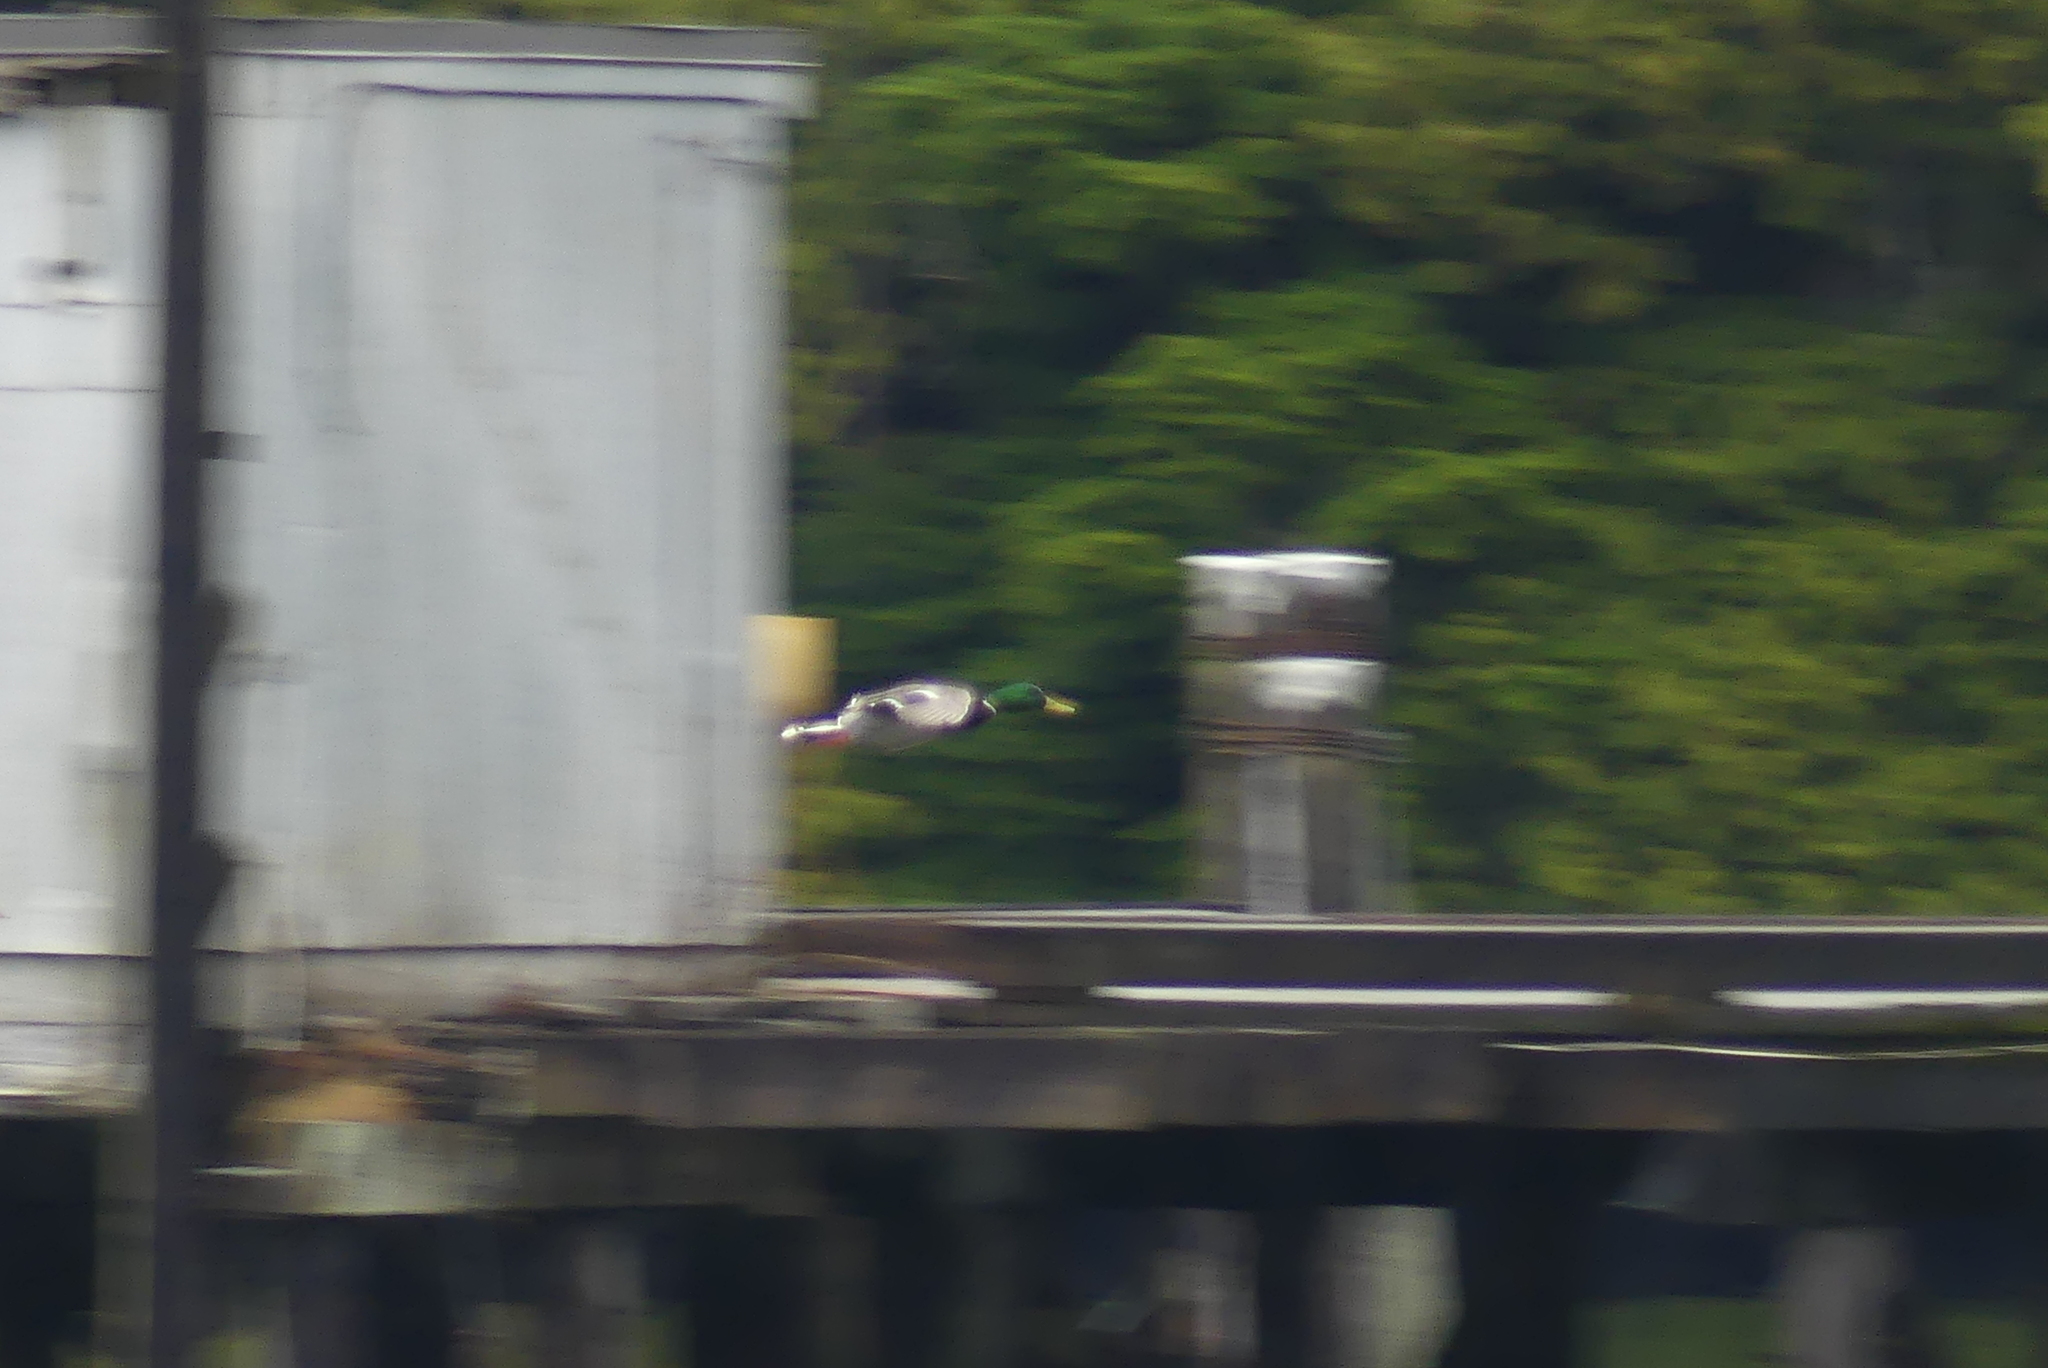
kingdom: Animalia
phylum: Chordata
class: Aves
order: Anseriformes
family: Anatidae
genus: Anas
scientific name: Anas platyrhynchos
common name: Mallard
